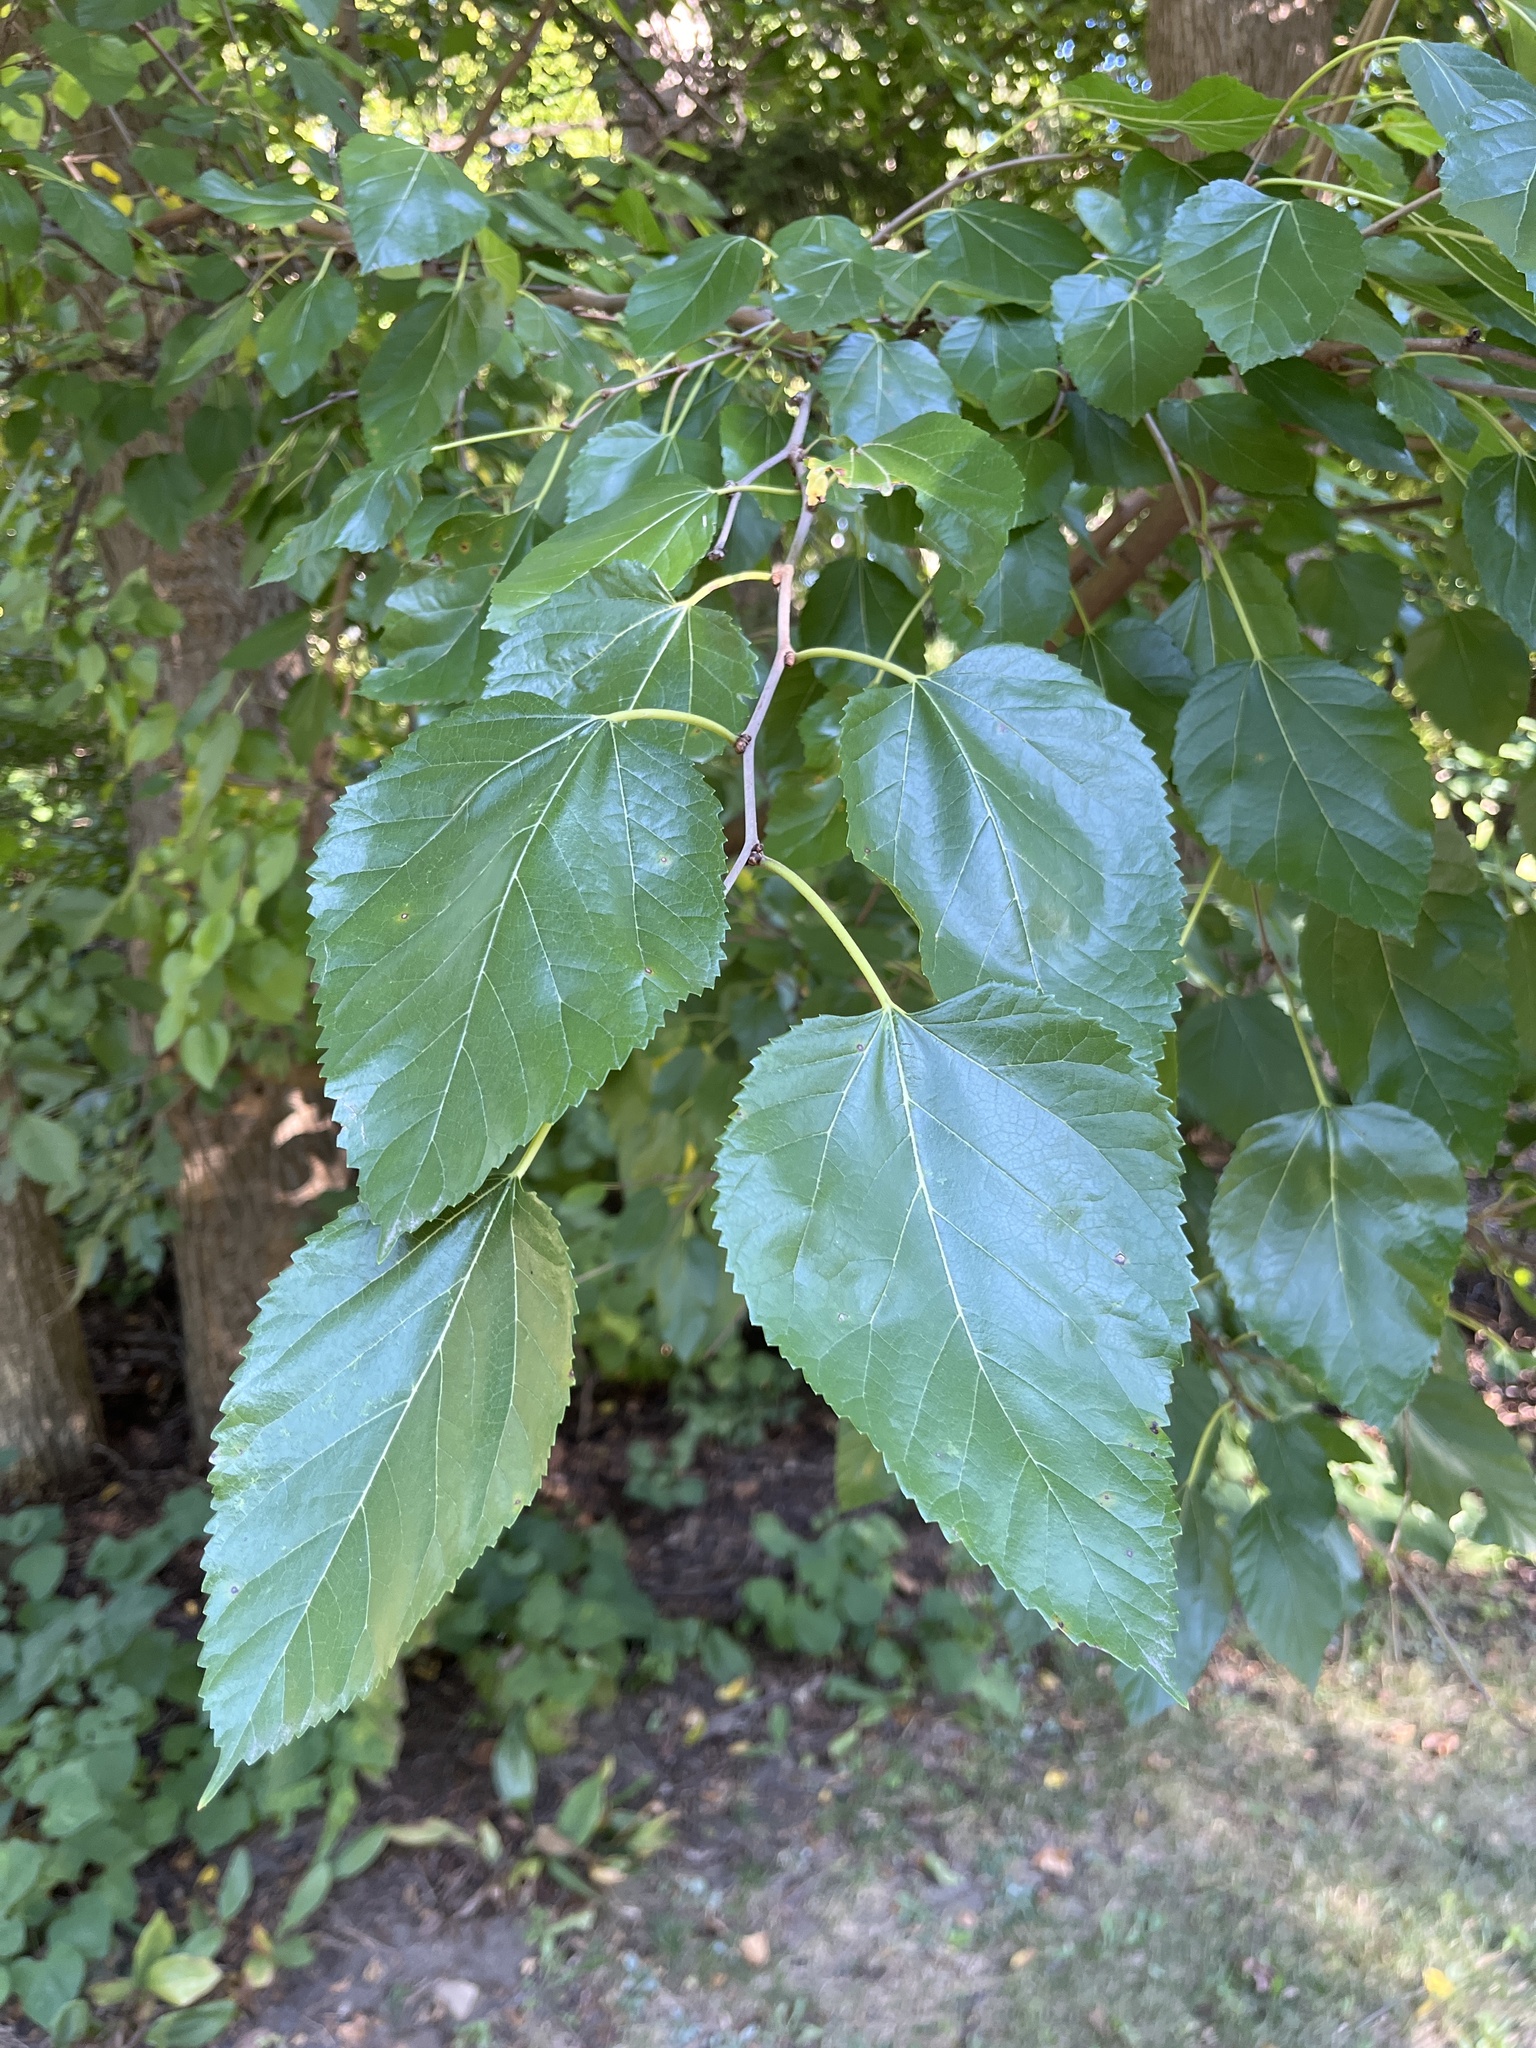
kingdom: Plantae
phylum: Tracheophyta
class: Magnoliopsida
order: Rosales
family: Moraceae
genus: Morus
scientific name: Morus alba
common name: White mulberry
